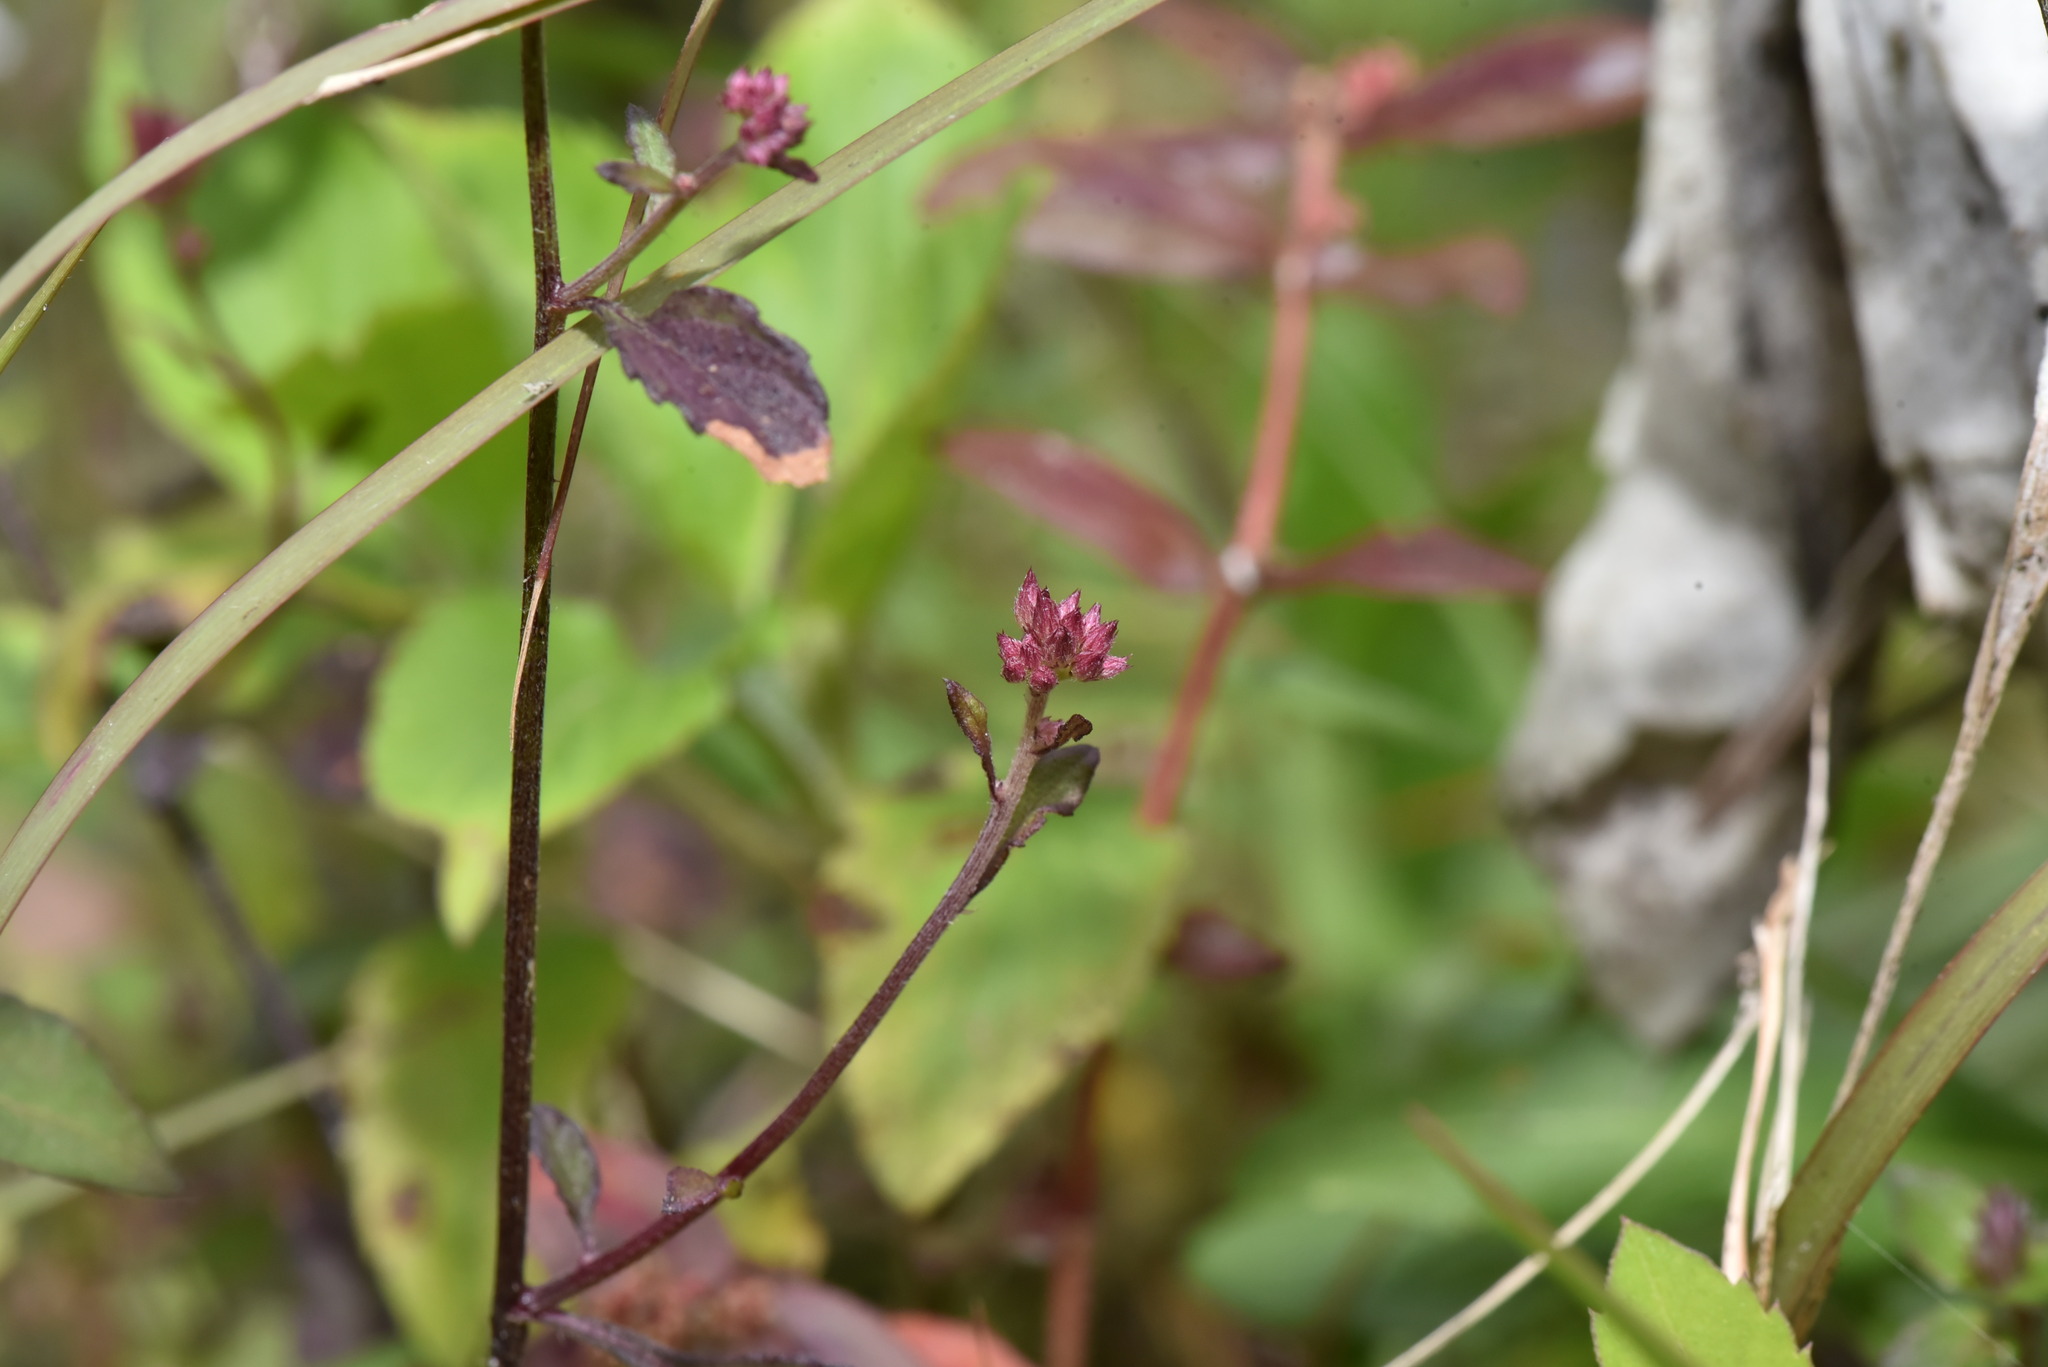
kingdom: Plantae
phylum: Tracheophyta
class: Magnoliopsida
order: Asterales
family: Asteraceae
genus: Cyanthillium
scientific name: Cyanthillium cinereum
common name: Little ironweed
